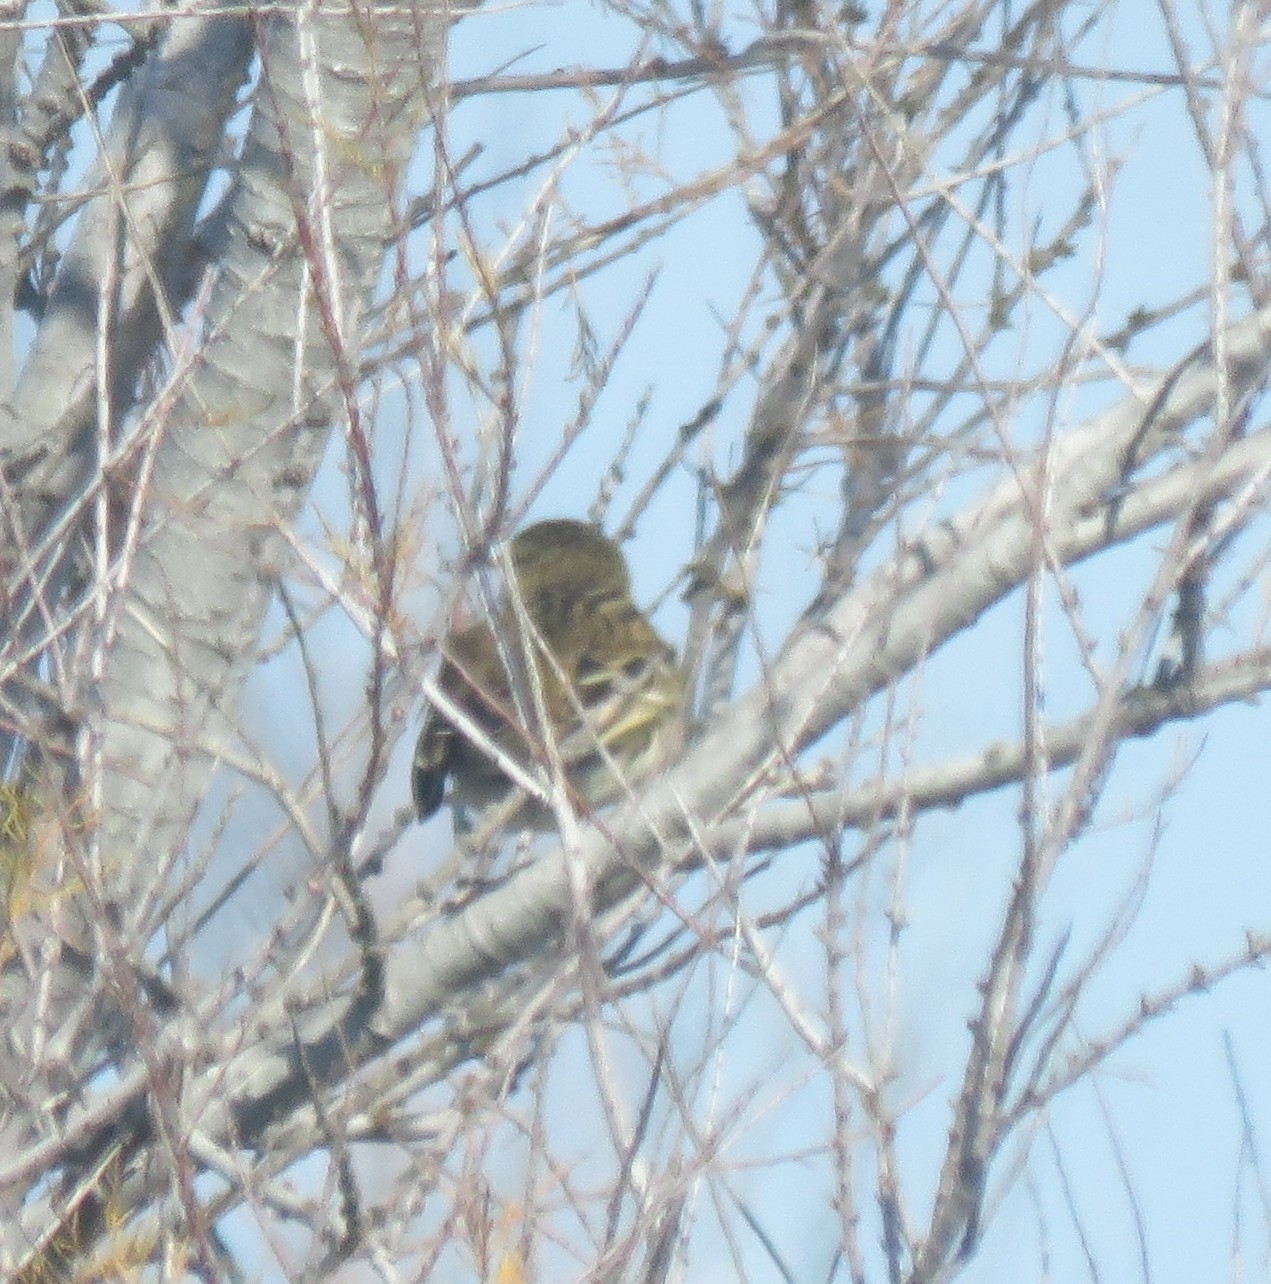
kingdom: Animalia
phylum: Chordata
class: Aves
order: Passeriformes
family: Motacillidae
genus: Anthus
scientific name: Anthus pratensis
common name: Meadow pipit
